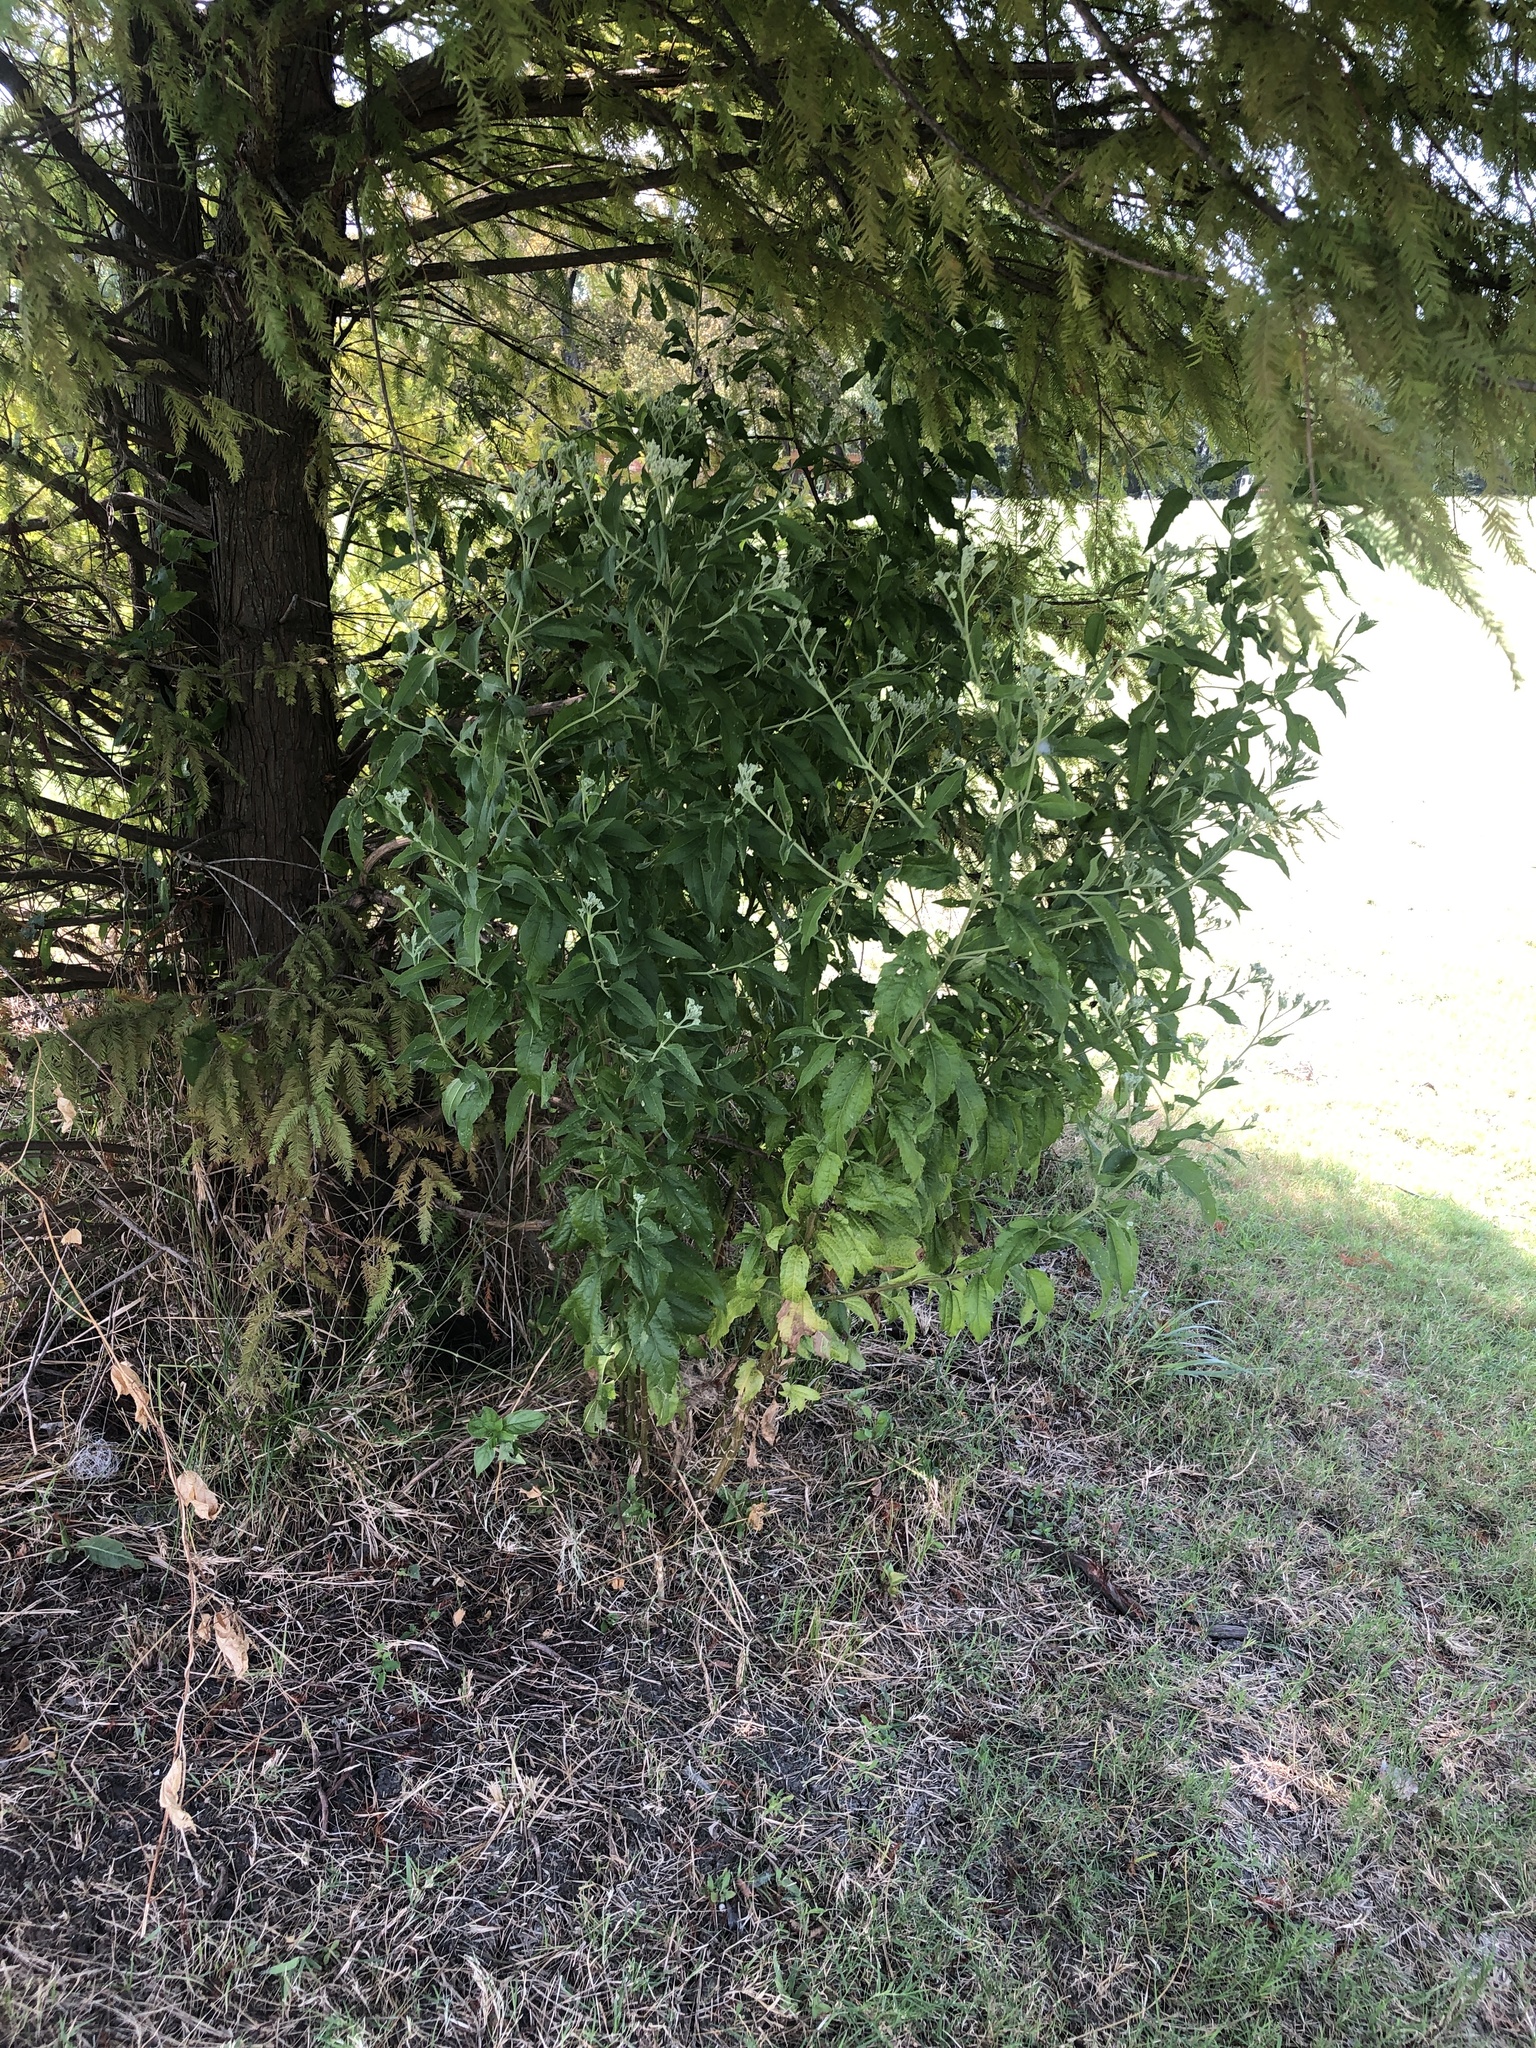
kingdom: Plantae
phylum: Tracheophyta
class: Magnoliopsida
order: Asterales
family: Asteraceae
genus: Eupatorium
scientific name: Eupatorium serotinum
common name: Late boneset
